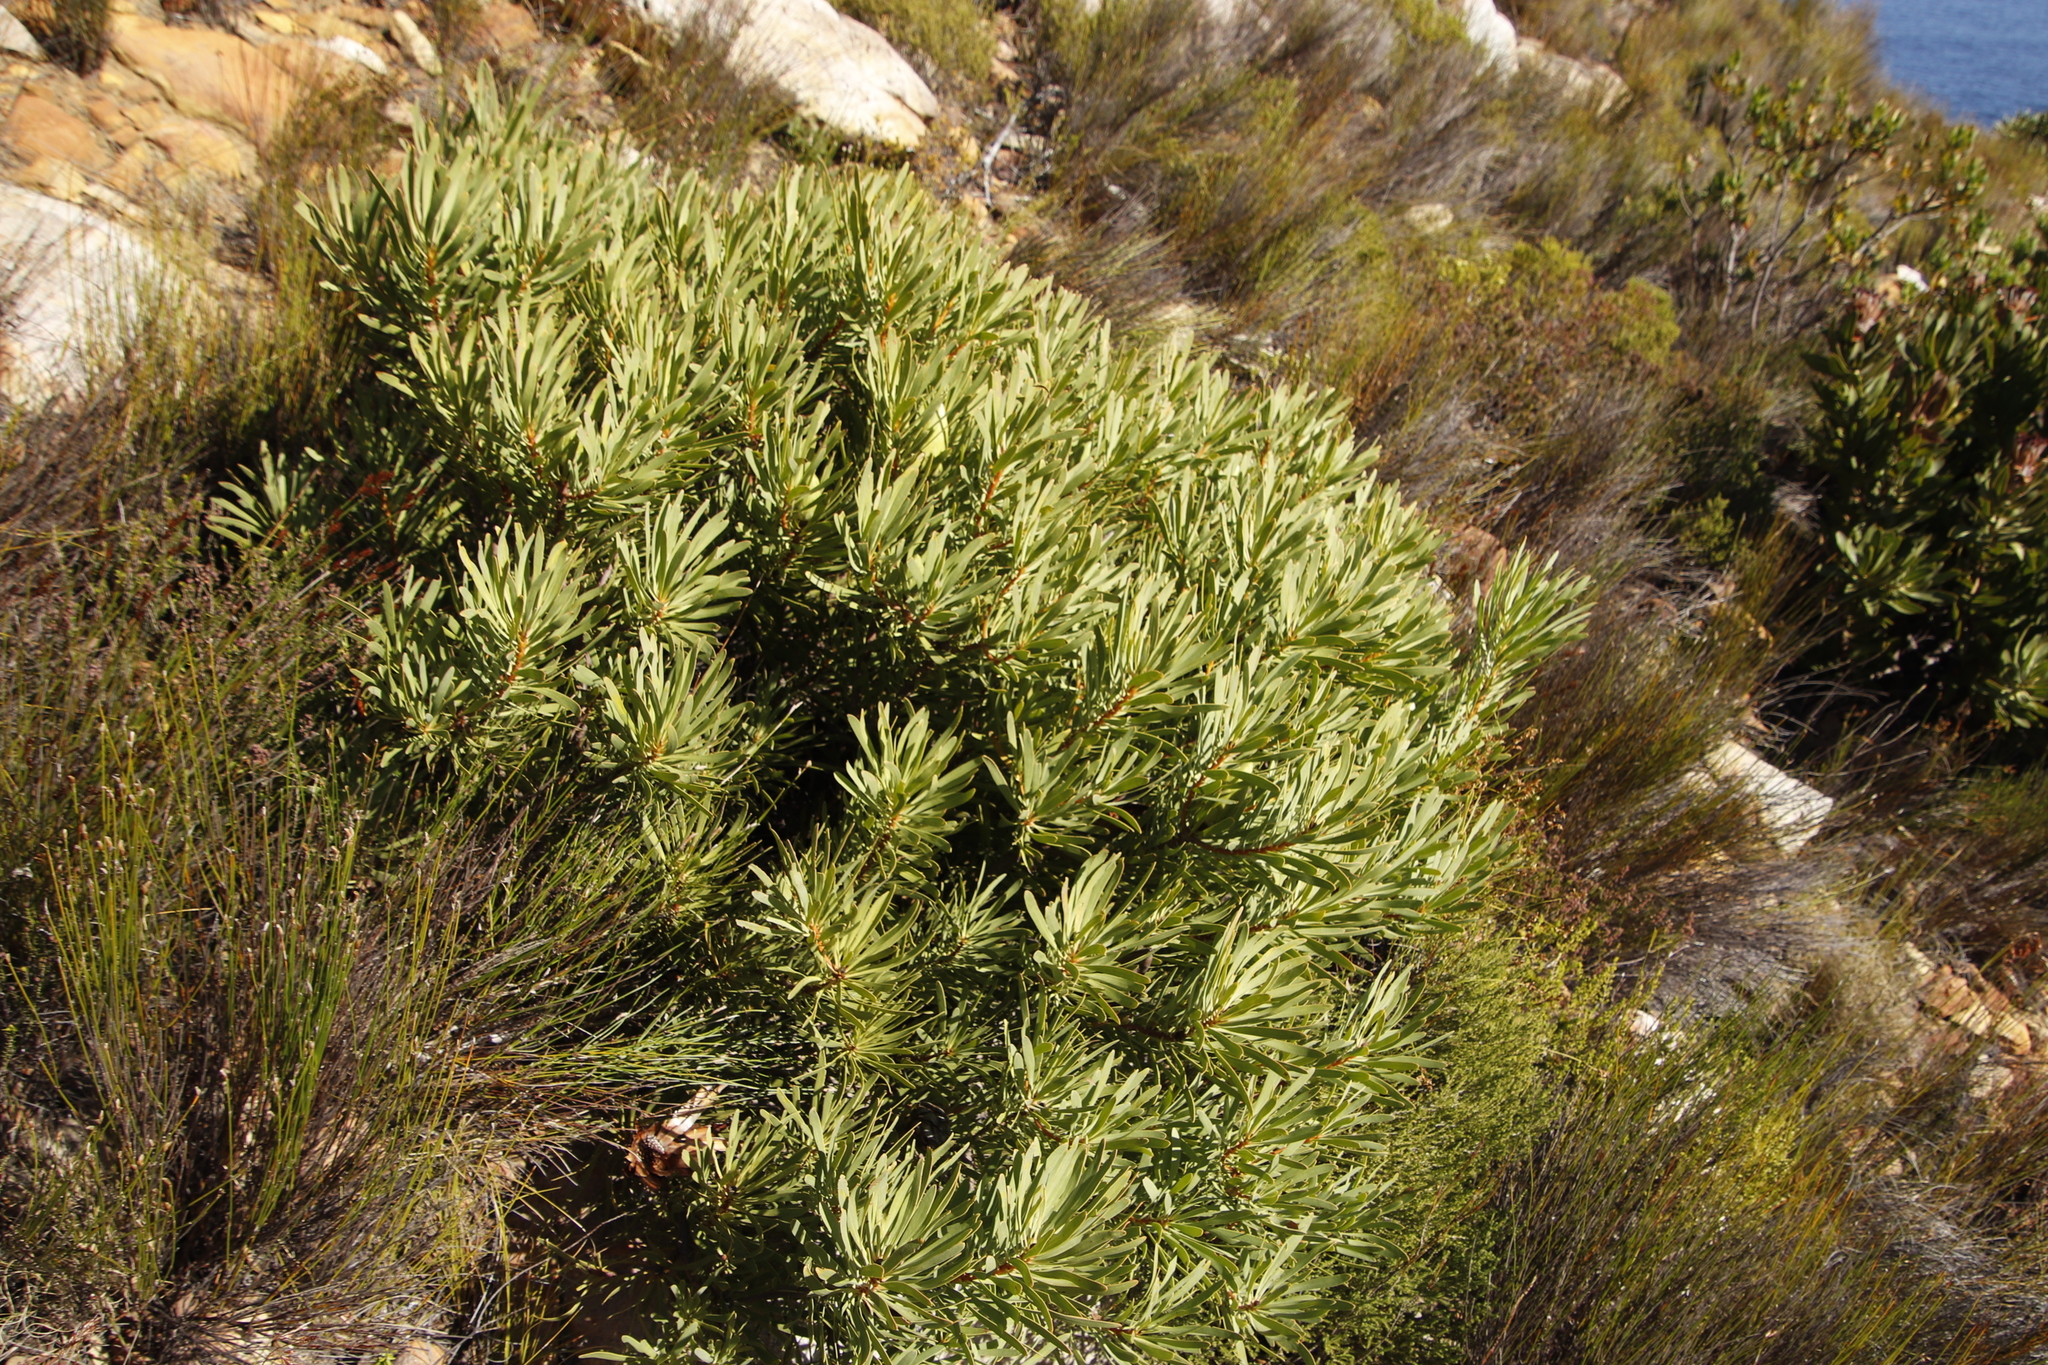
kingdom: Plantae
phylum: Tracheophyta
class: Magnoliopsida
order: Proteales
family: Proteaceae
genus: Protea
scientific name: Protea repens
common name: Sugarbush
